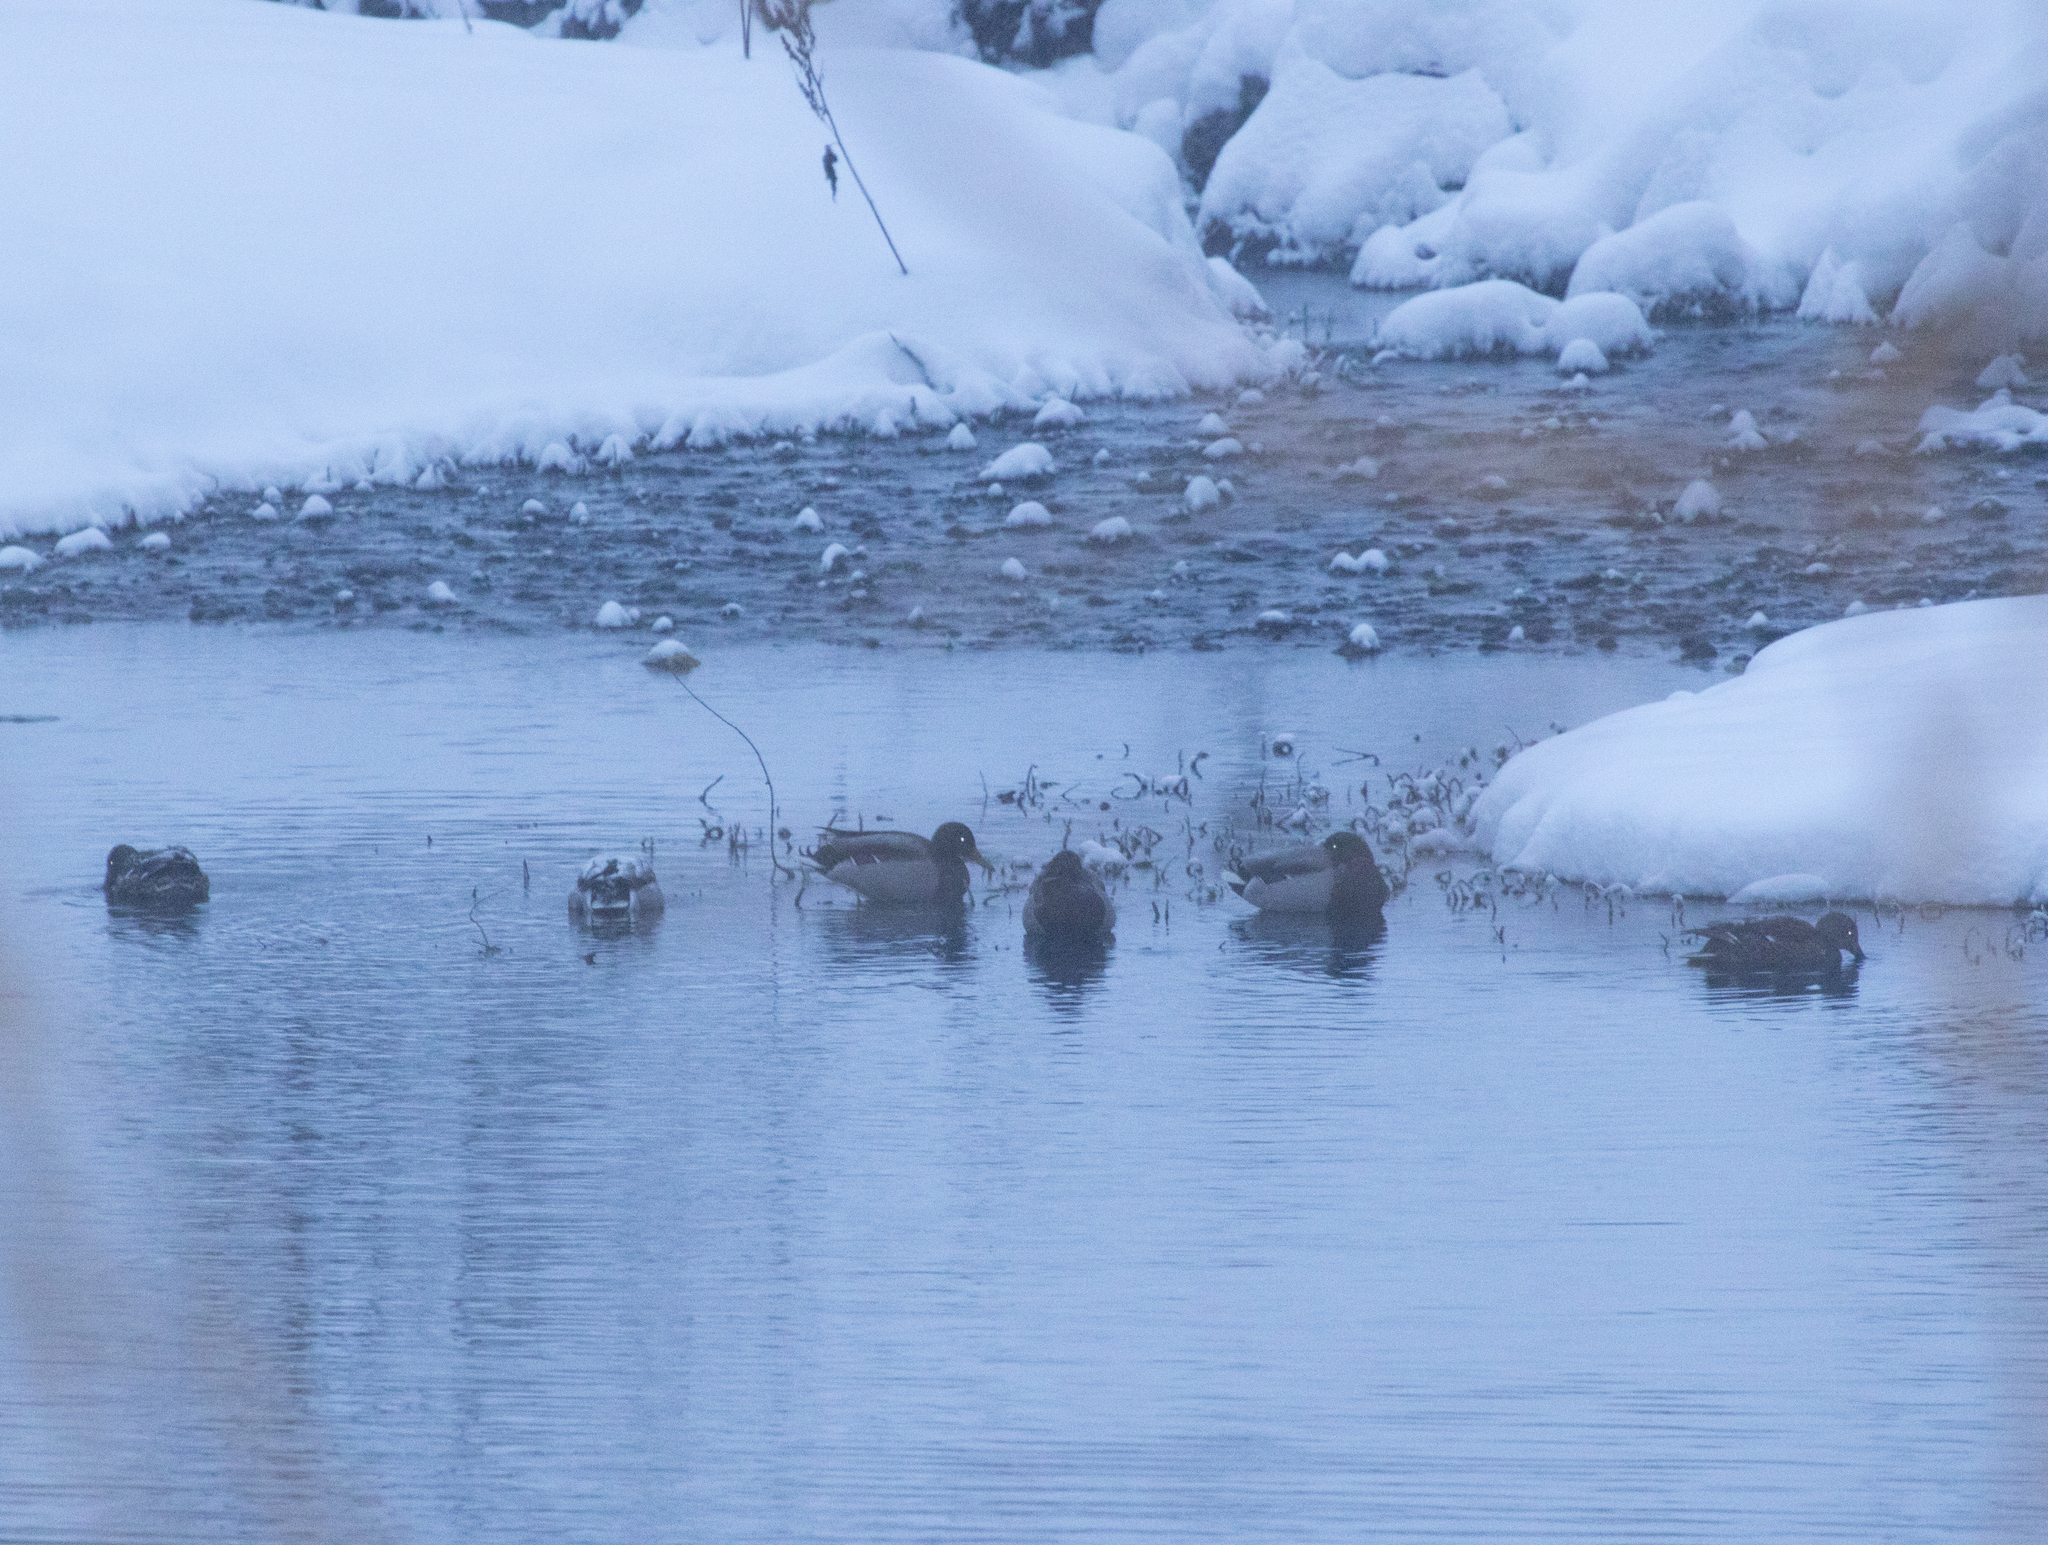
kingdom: Animalia
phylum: Chordata
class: Aves
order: Anseriformes
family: Anatidae
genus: Anas
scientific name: Anas platyrhynchos
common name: Mallard
